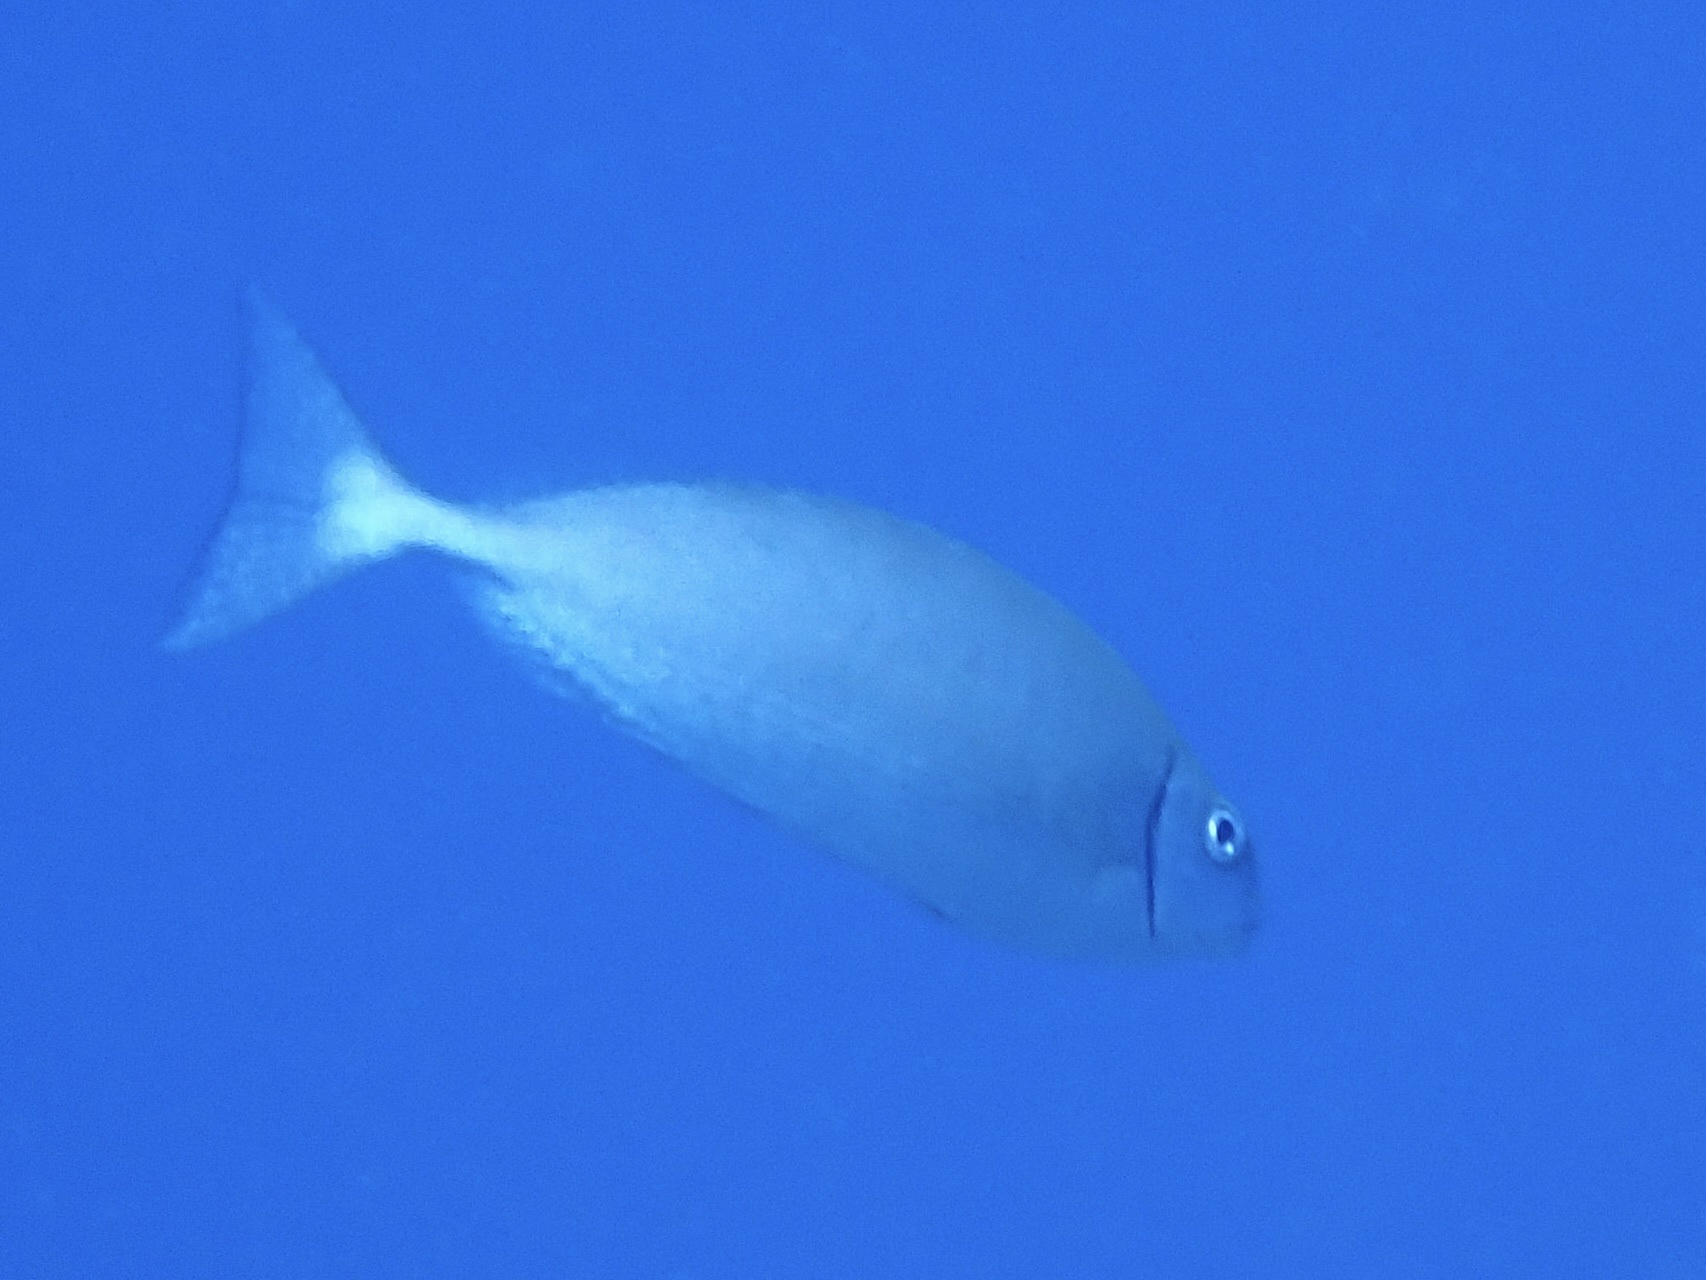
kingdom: Animalia
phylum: Chordata
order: Perciformes
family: Siganidae
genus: Siganus
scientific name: Siganus rivulatus
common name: Marbled spinefoot
